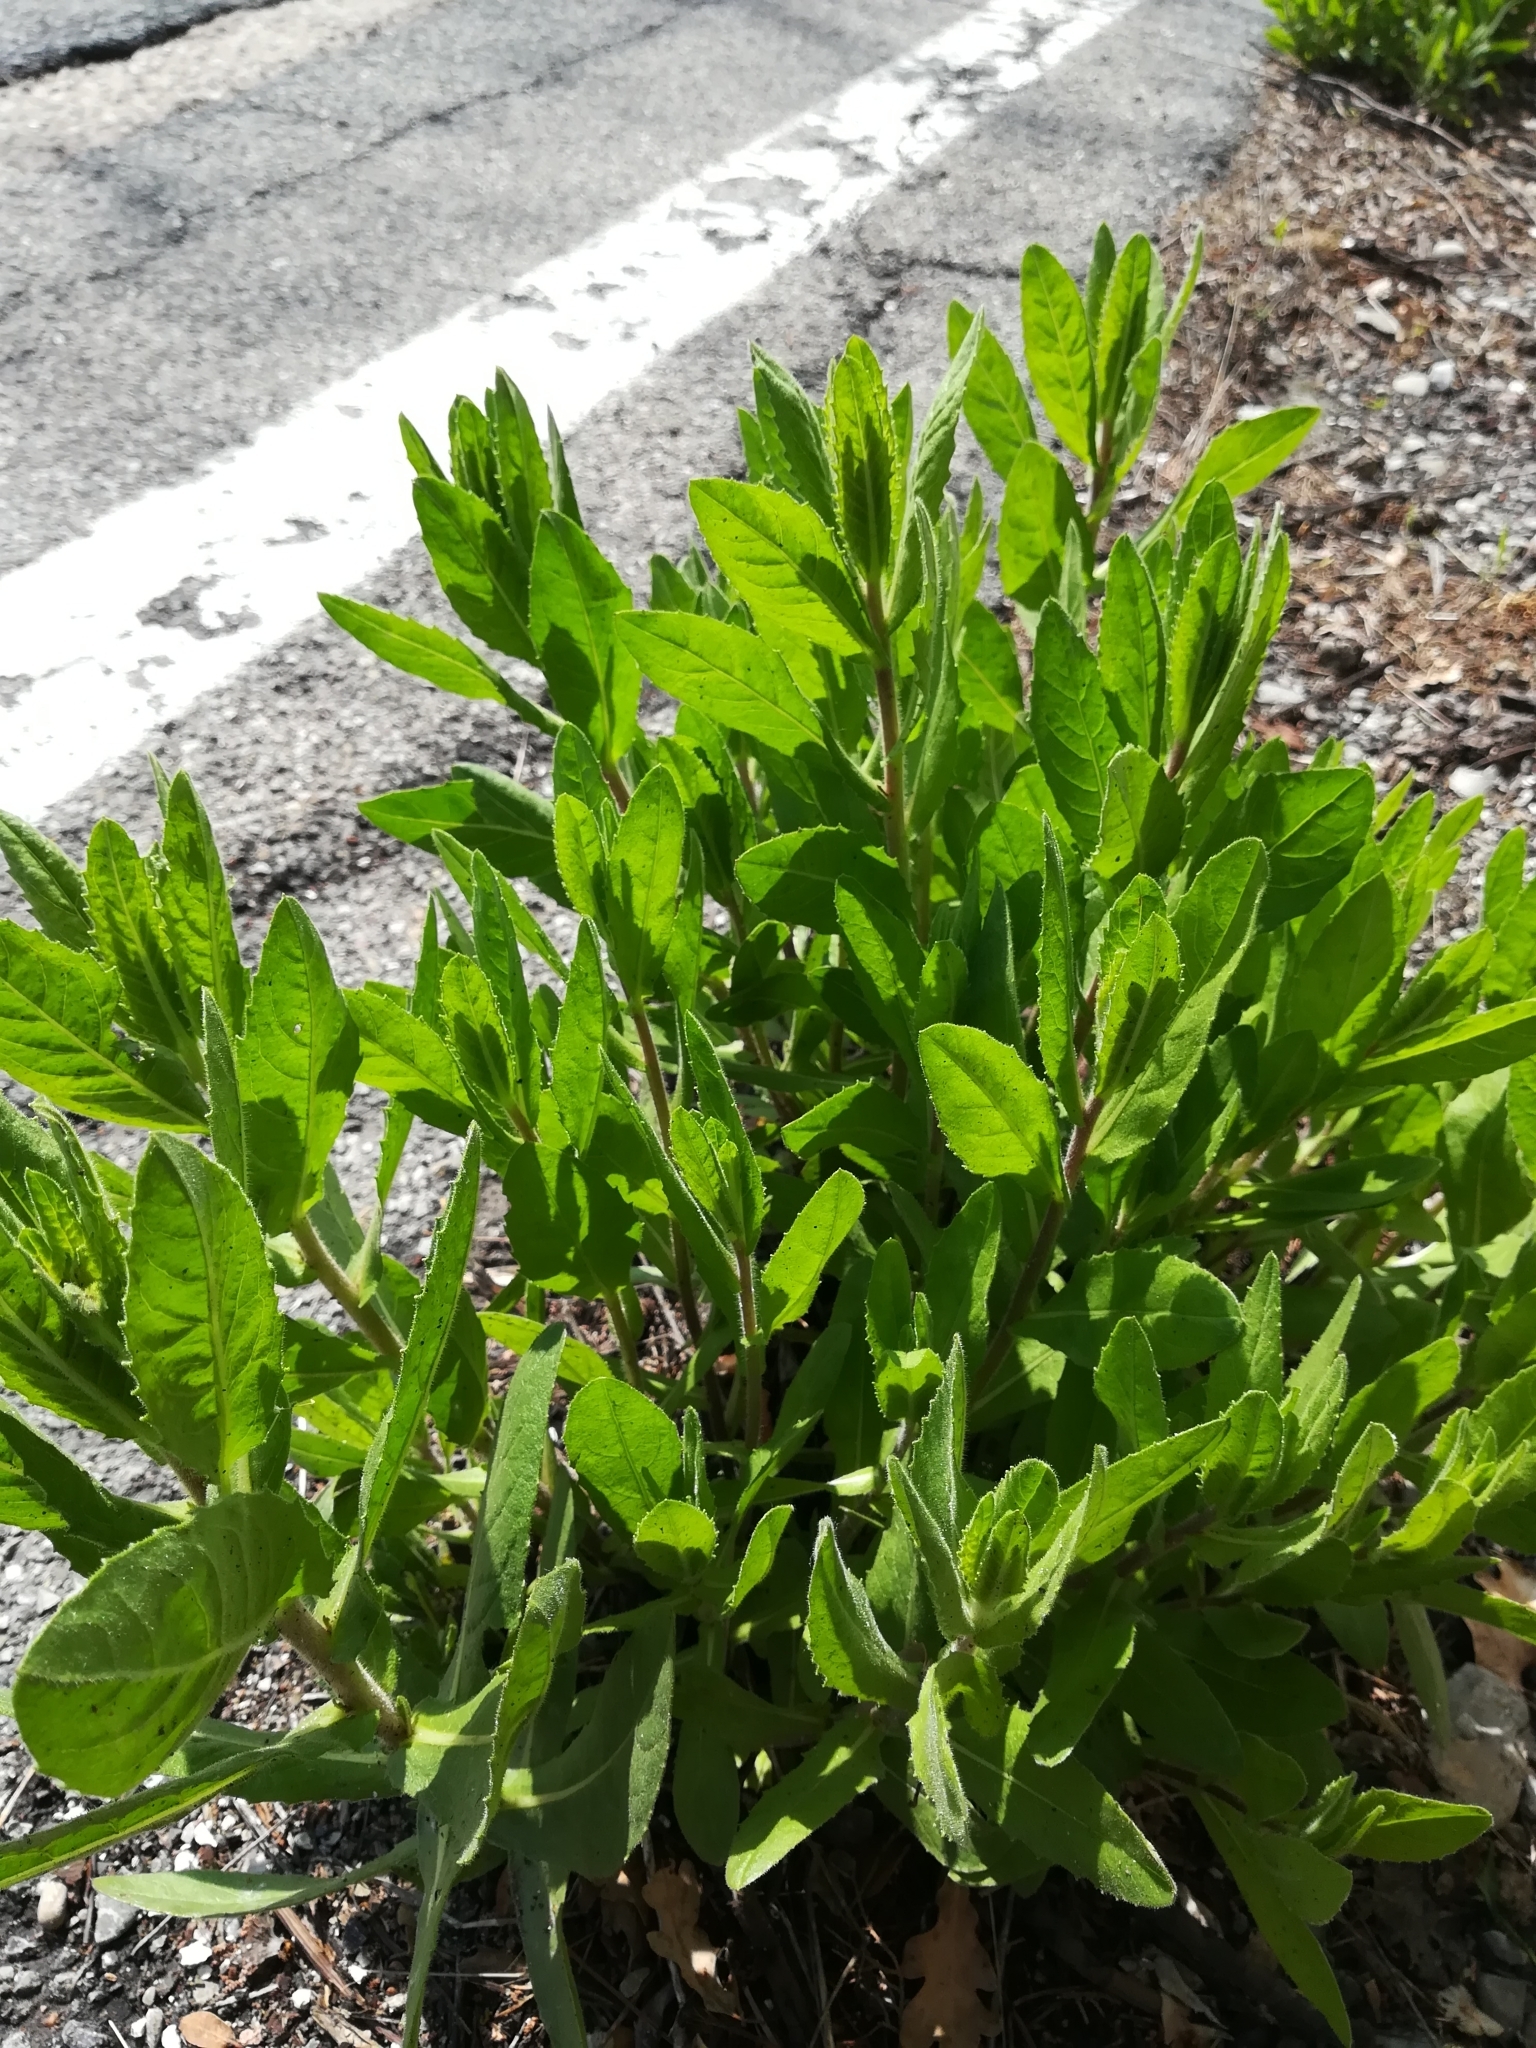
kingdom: Plantae
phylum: Tracheophyta
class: Magnoliopsida
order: Asterales
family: Asteraceae
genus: Dittrichia
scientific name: Dittrichia viscosa
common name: Woody fleabane
